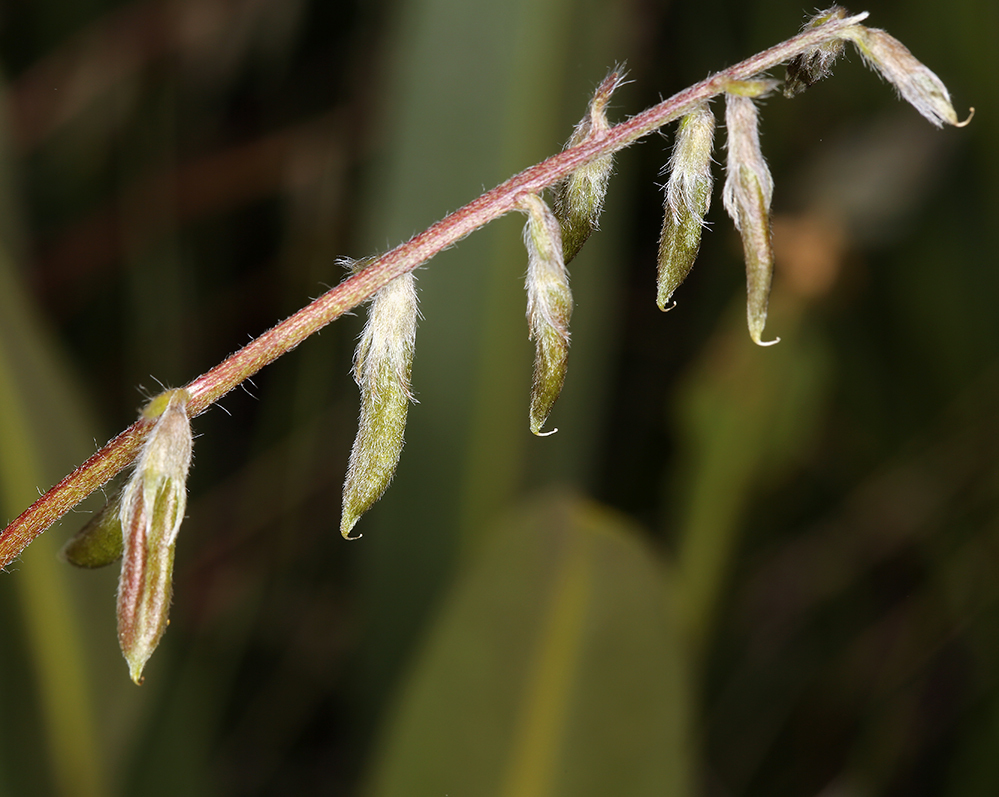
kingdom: Plantae
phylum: Tracheophyta
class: Magnoliopsida
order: Fabales
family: Fabaceae
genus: Oxytropis
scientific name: Oxytropis deflexa
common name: Stemmed oxytrope
